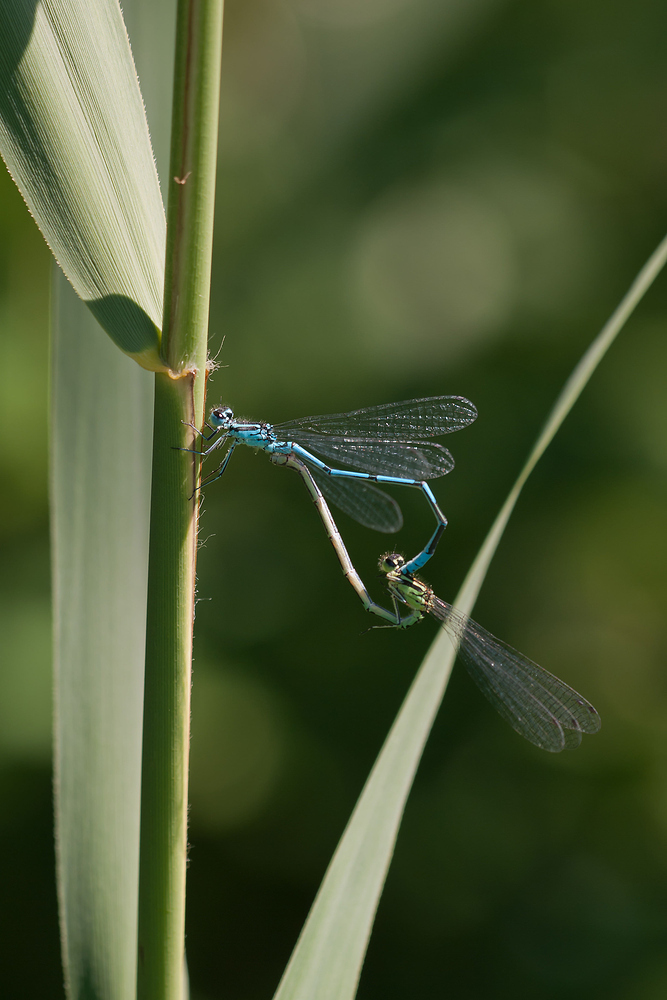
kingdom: Animalia
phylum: Arthropoda
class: Insecta
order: Odonata
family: Coenagrionidae
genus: Coenagrion
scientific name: Coenagrion puella
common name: Azure damselfly
